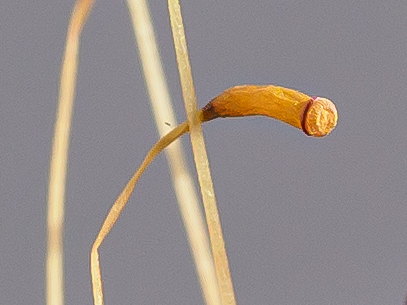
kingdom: Plantae
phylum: Bryophyta
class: Polytrichopsida
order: Polytrichales
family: Polytrichaceae
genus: Atrichum
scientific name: Atrichum undulatum
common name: Common smoothcap
